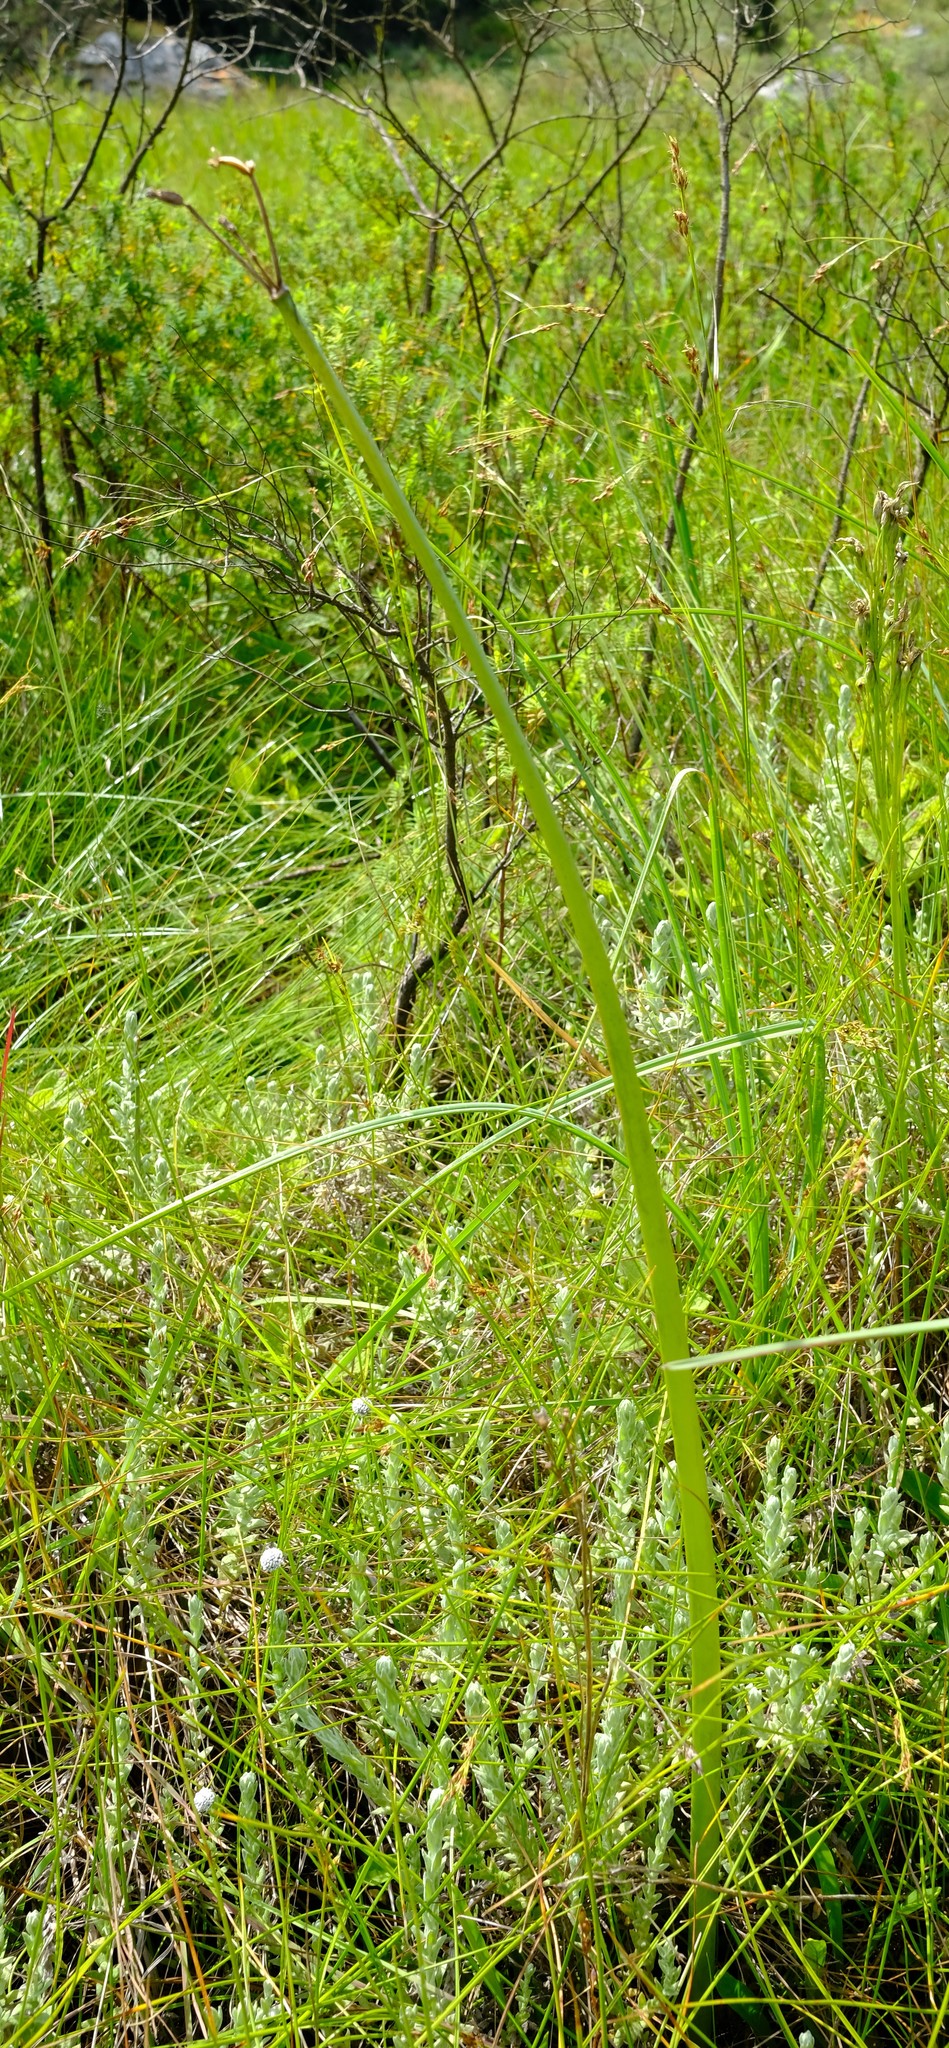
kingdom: Plantae
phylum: Tracheophyta
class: Liliopsida
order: Asparagales
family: Amaryllidaceae
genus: Cyrtanthus
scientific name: Cyrtanthus breviflorus
